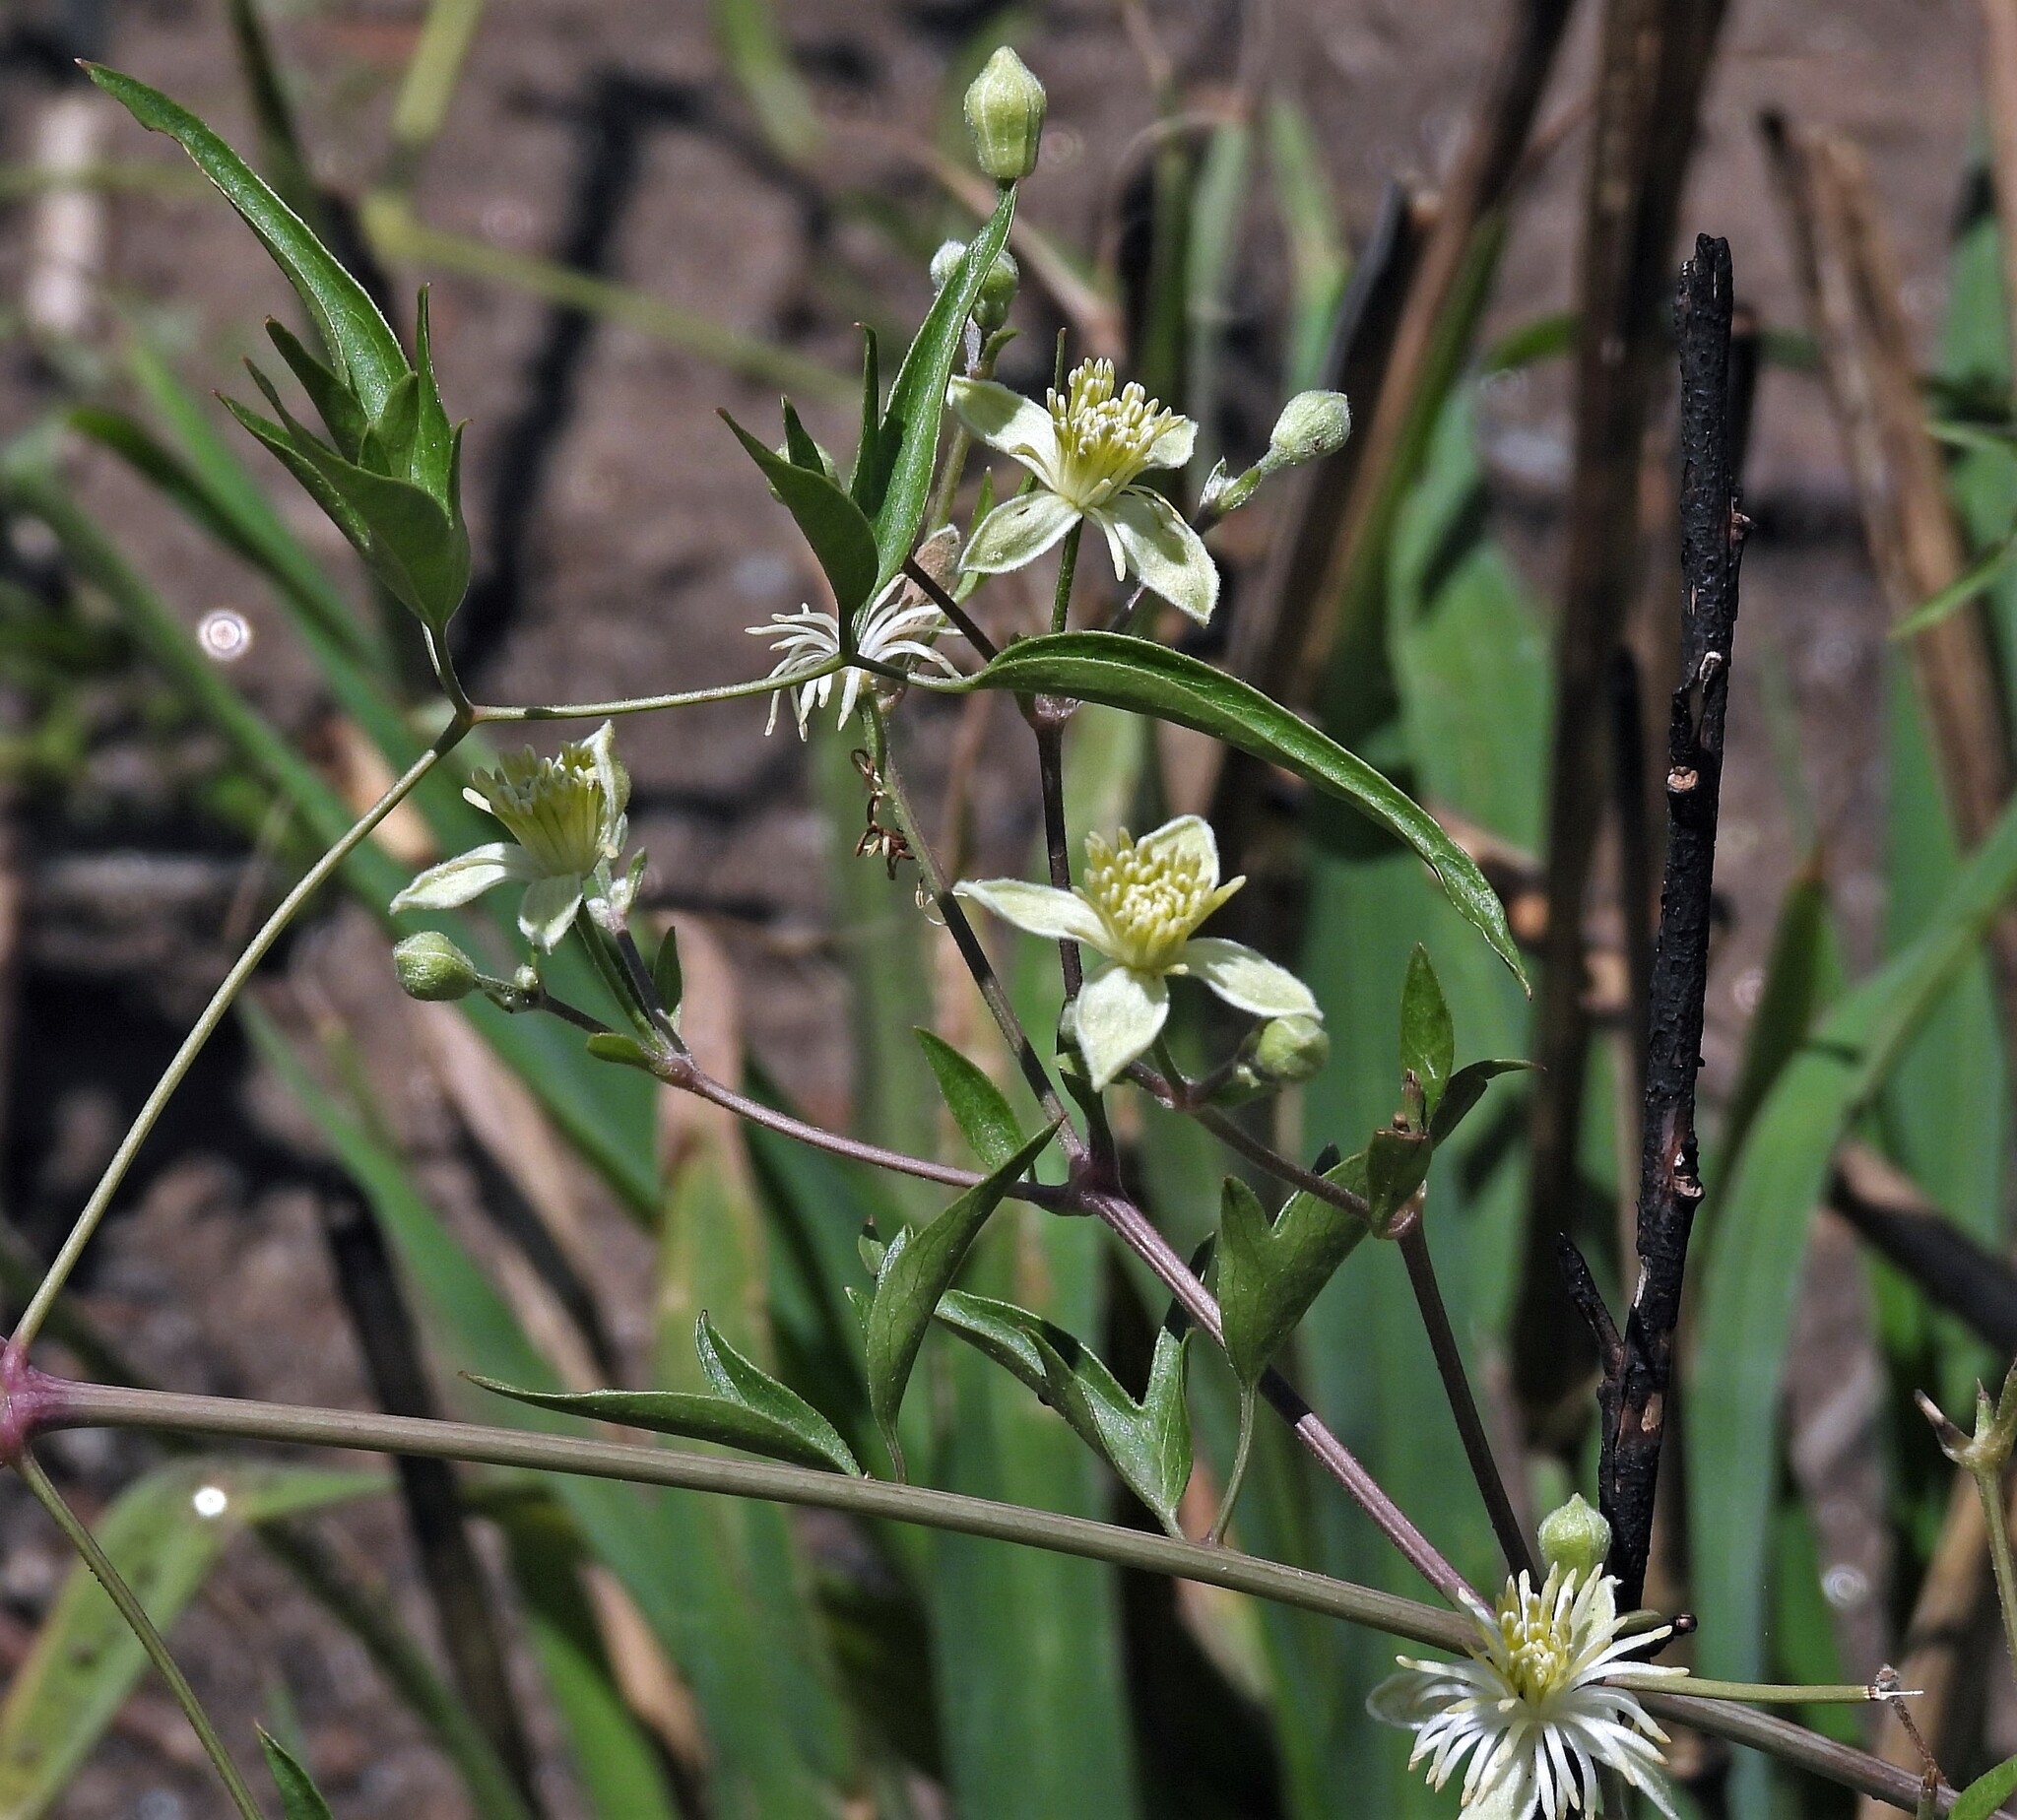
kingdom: Plantae
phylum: Tracheophyta
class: Magnoliopsida
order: Ranunculales
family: Ranunculaceae
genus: Clematis
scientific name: Clematis montevidensis
